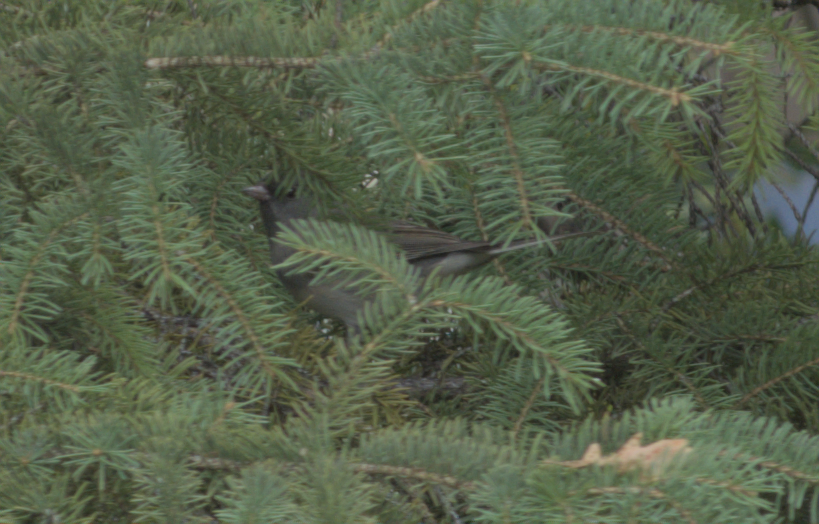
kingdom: Animalia
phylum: Chordata
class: Aves
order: Passeriformes
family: Passerellidae
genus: Junco
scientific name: Junco hyemalis
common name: Dark-eyed junco
